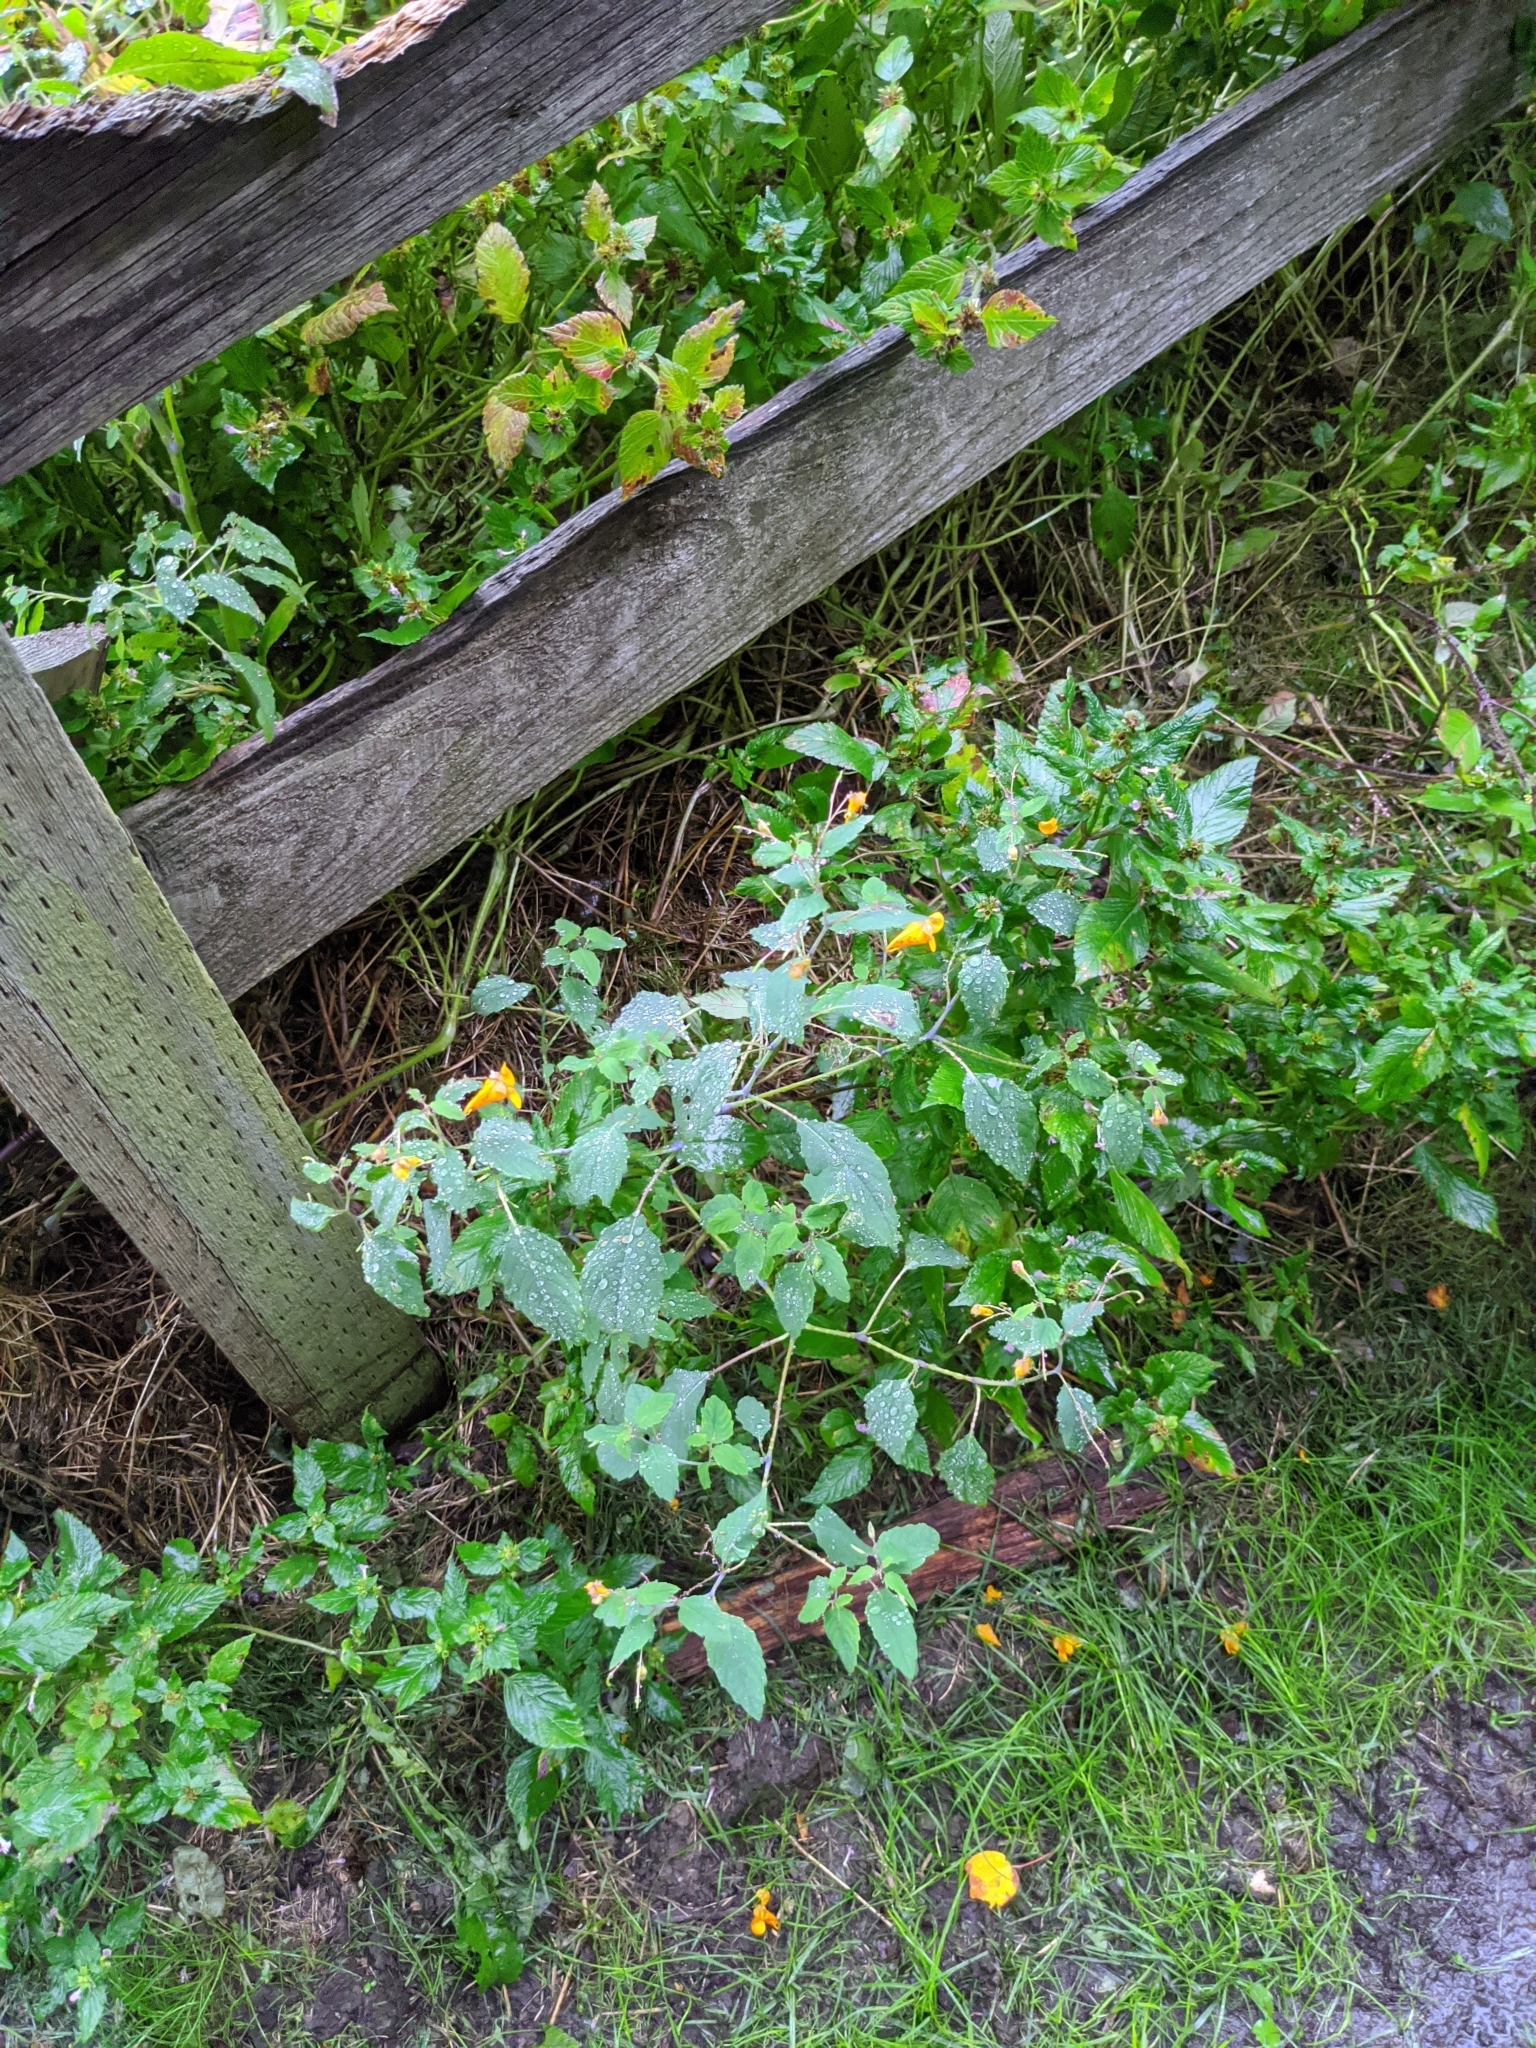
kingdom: Plantae
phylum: Tracheophyta
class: Magnoliopsida
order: Ericales
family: Balsaminaceae
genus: Impatiens
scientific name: Impatiens capensis
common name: Orange balsam
